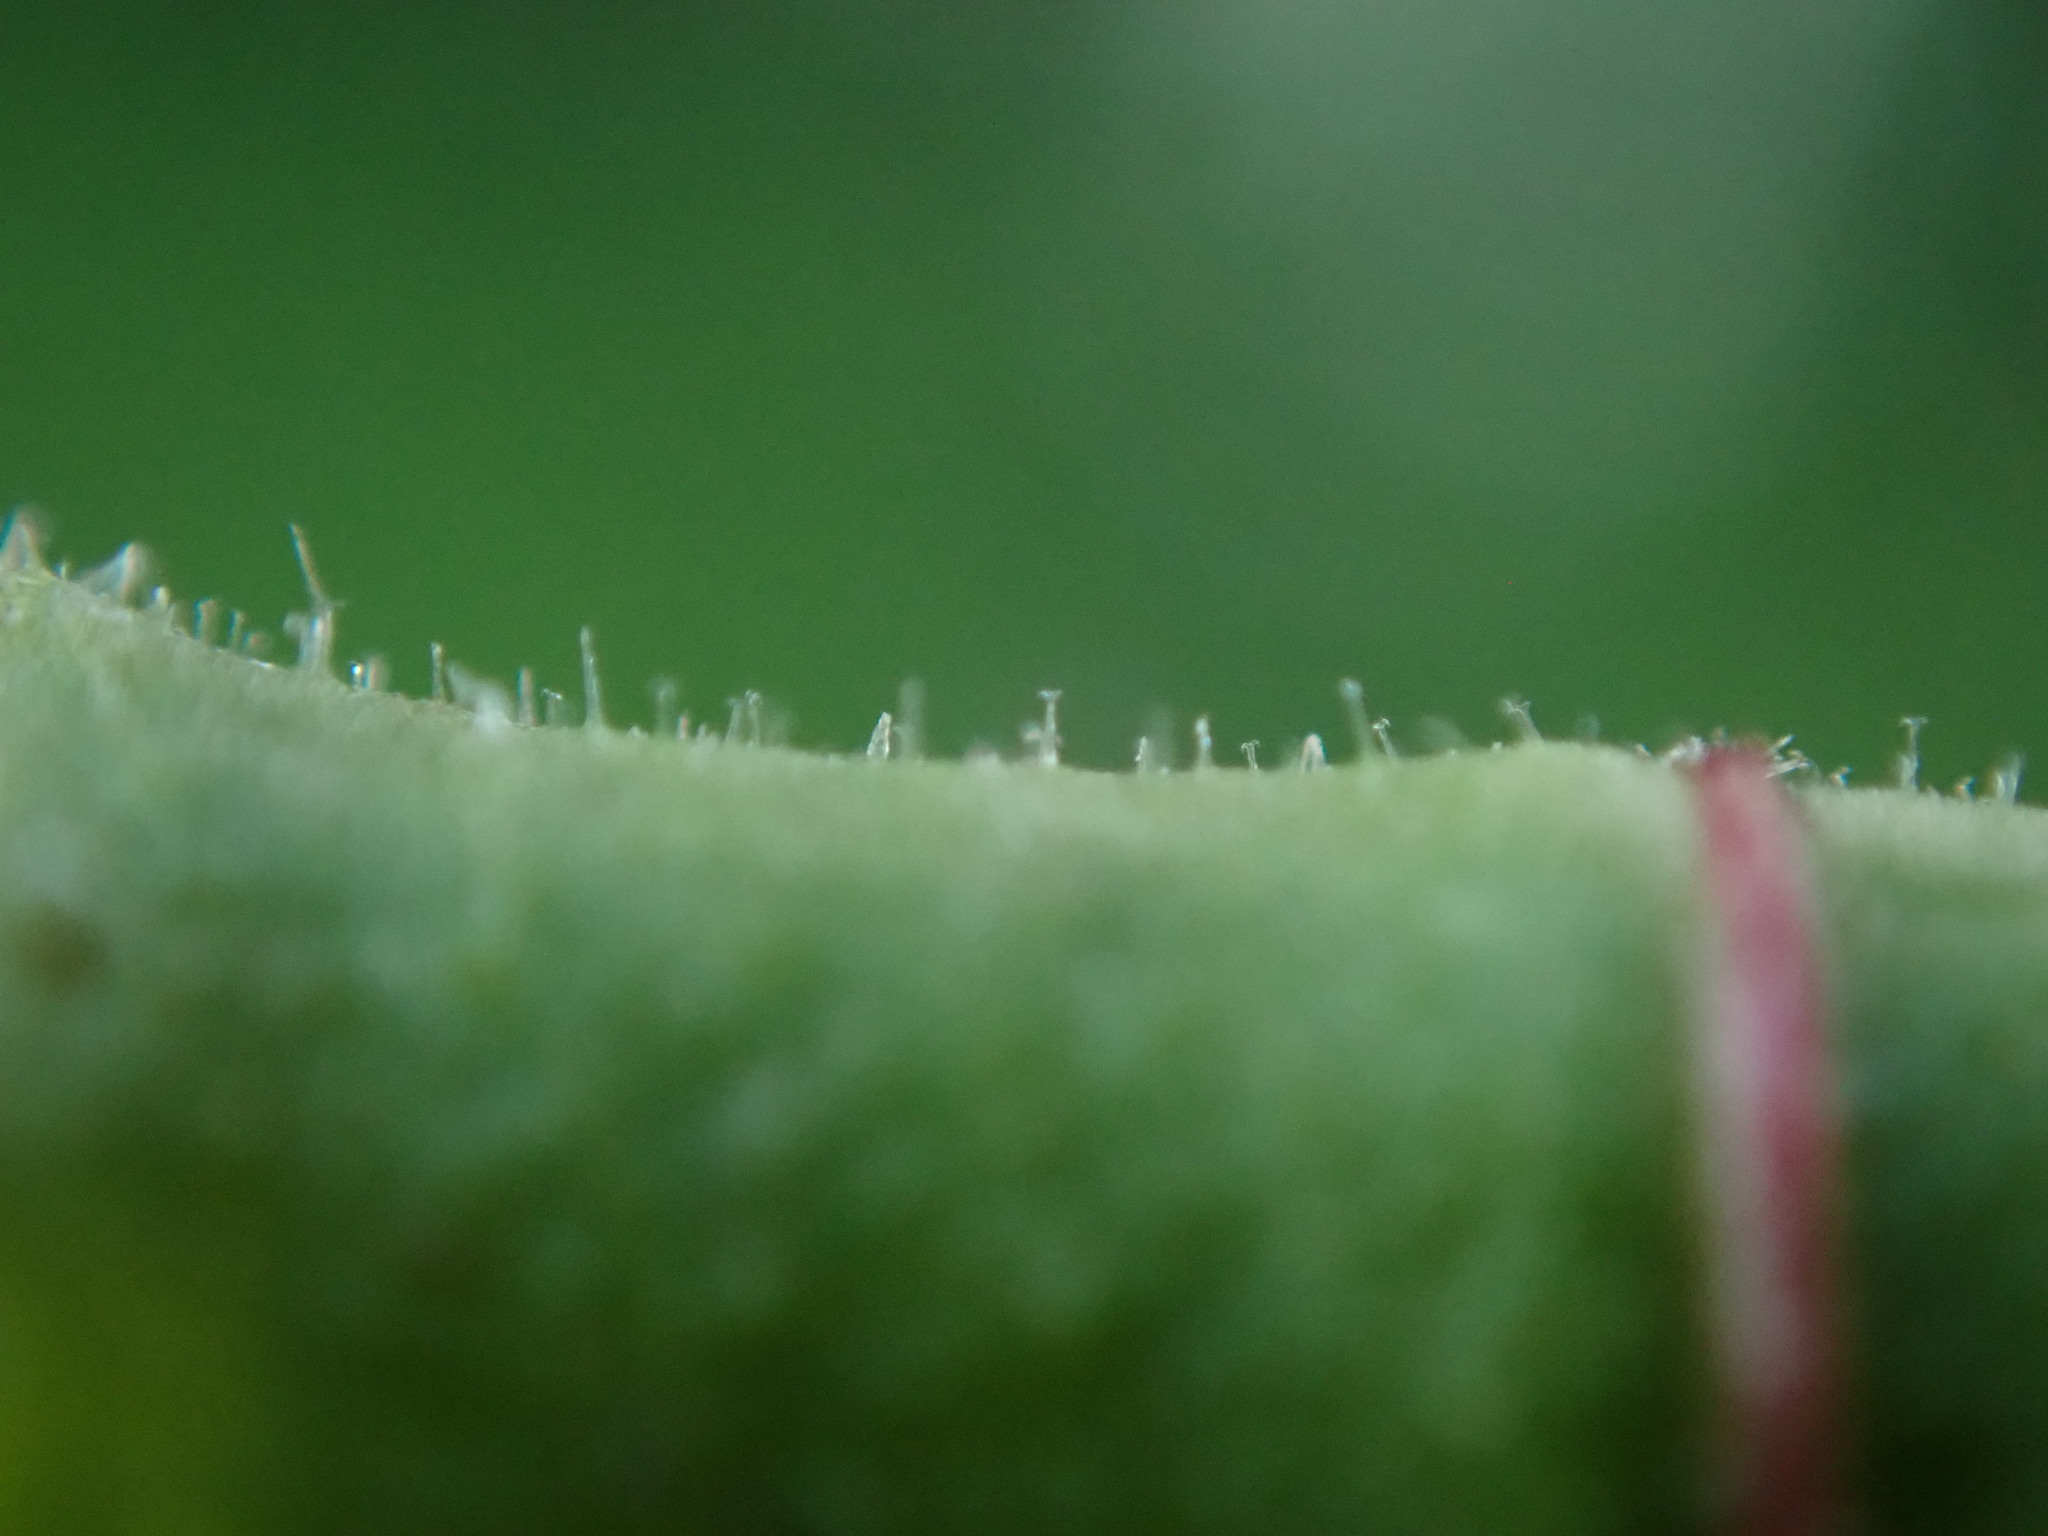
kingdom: Plantae
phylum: Tracheophyta
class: Magnoliopsida
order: Asterales
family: Asteraceae
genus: Picris
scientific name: Picris hieracioides
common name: Hawkweed oxtongue
